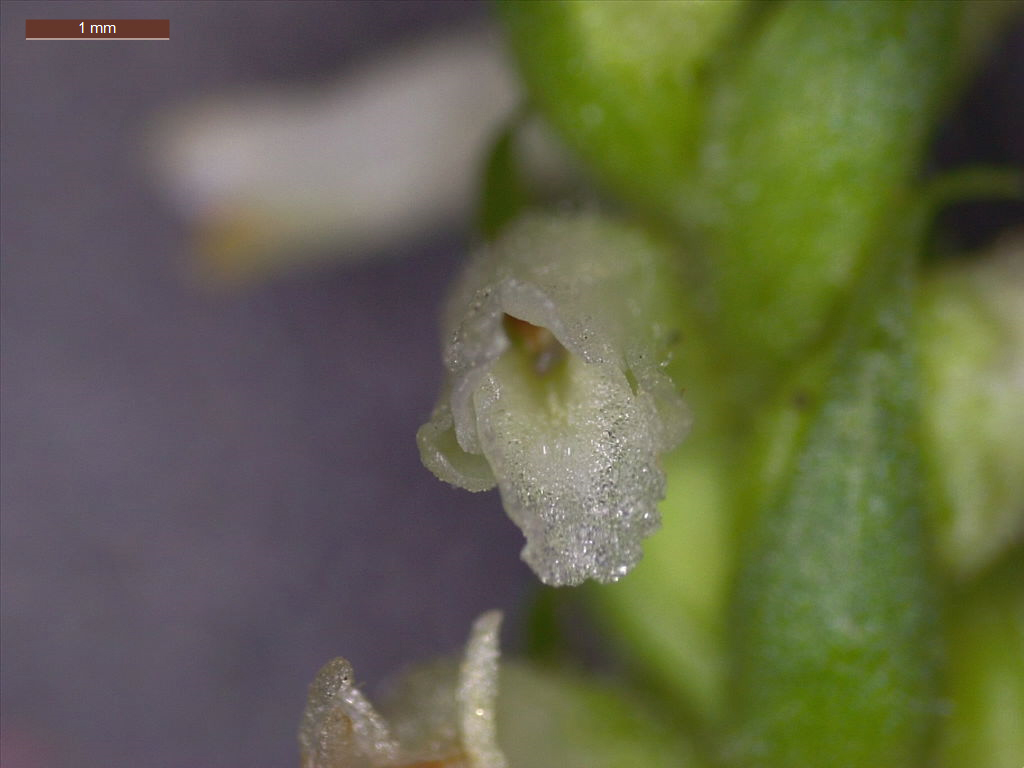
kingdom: Plantae
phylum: Tracheophyta
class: Liliopsida
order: Asparagales
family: Orchidaceae
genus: Spiranthes
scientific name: Spiranthes ovalis
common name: October ladies'-tresses
